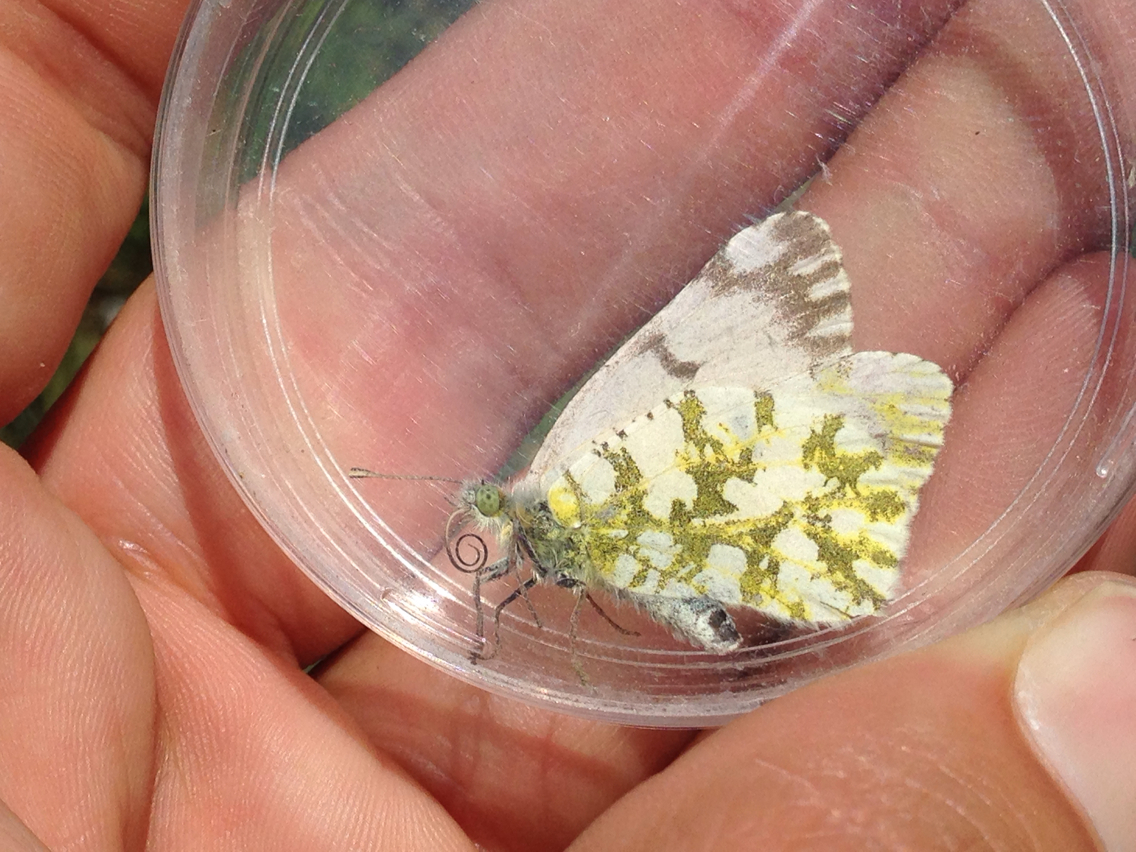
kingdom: Animalia
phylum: Arthropoda
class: Insecta
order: Lepidoptera
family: Pieridae
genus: Euchloe
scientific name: Euchloe ausonides
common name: Creamy marblewing
